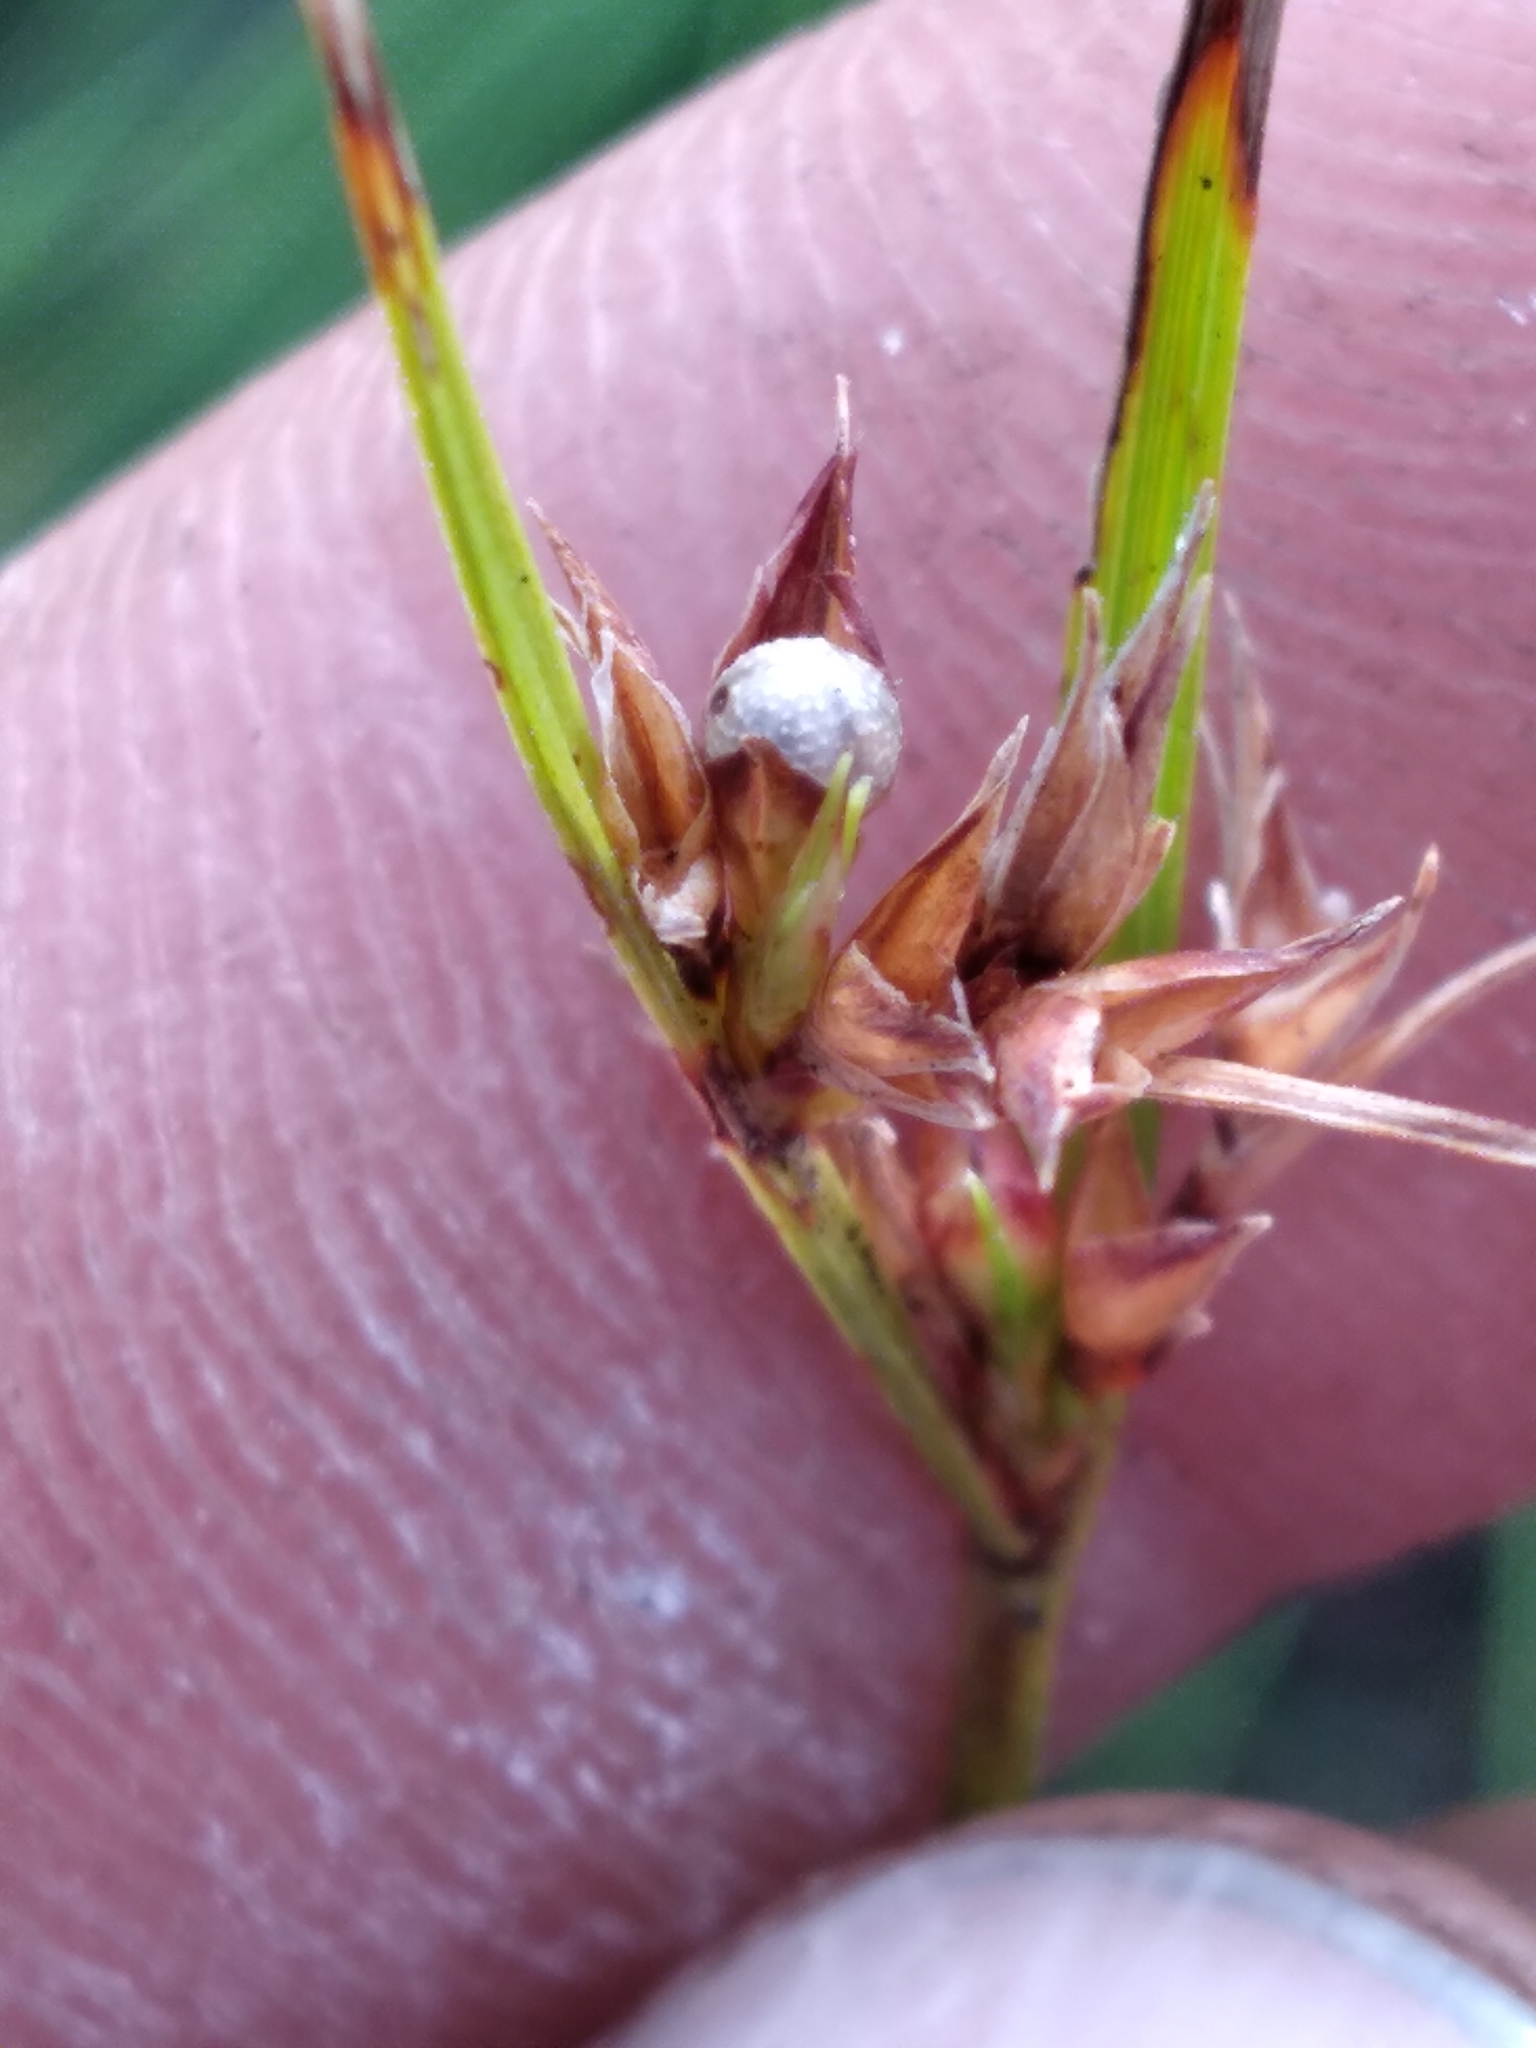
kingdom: Plantae
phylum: Tracheophyta
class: Liliopsida
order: Poales
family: Cyperaceae
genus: Scleria
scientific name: Scleria ciliata
